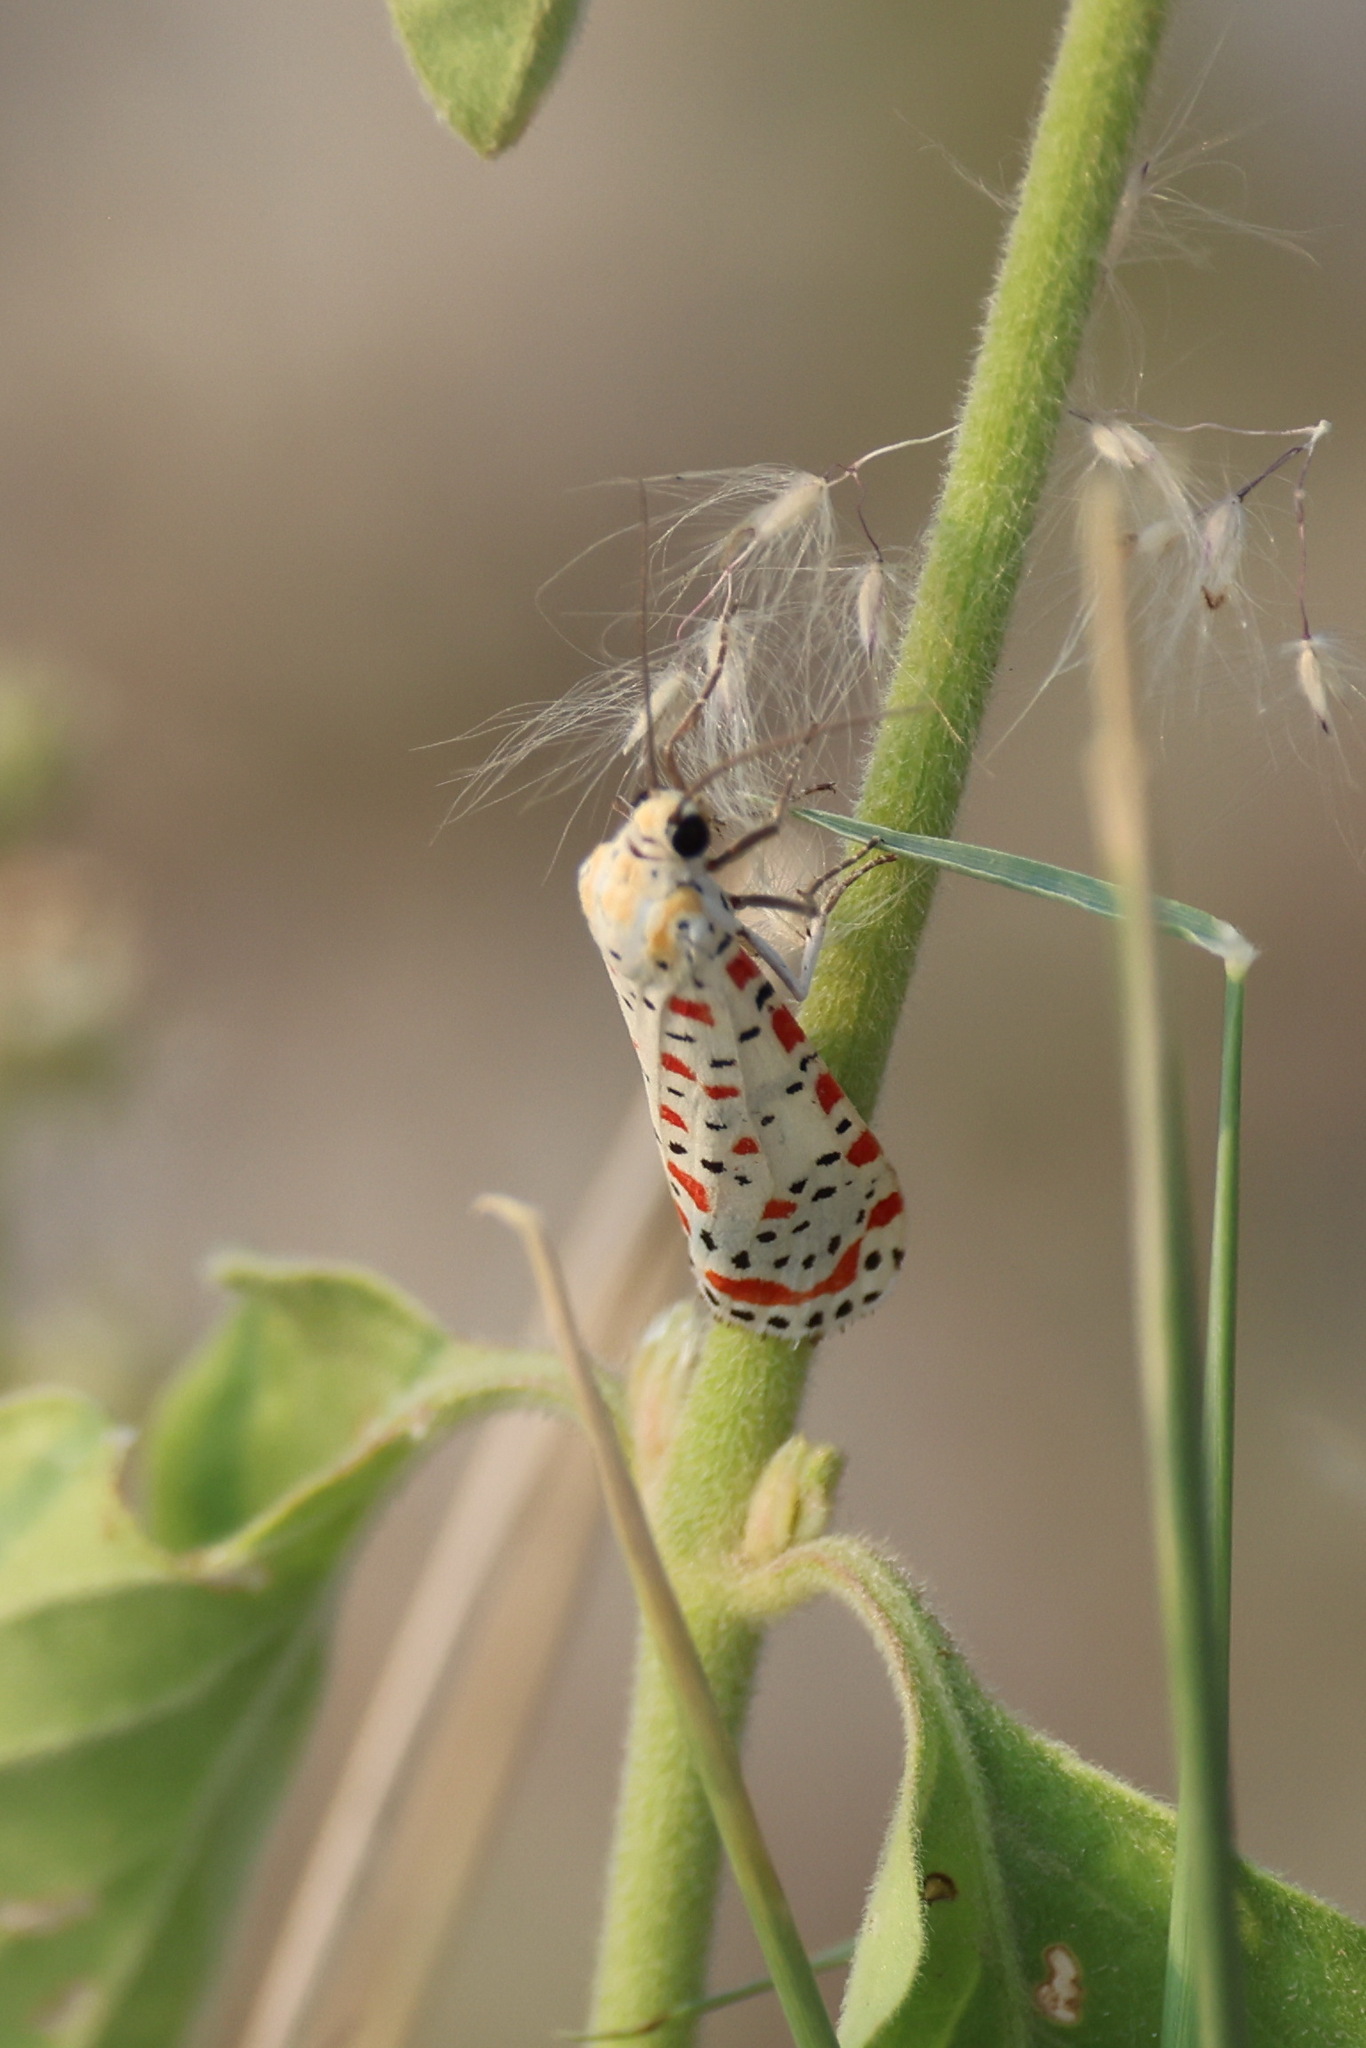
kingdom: Animalia
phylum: Arthropoda
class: Insecta
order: Lepidoptera
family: Erebidae
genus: Utetheisa
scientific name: Utetheisa pulchella
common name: Crimson speckled
